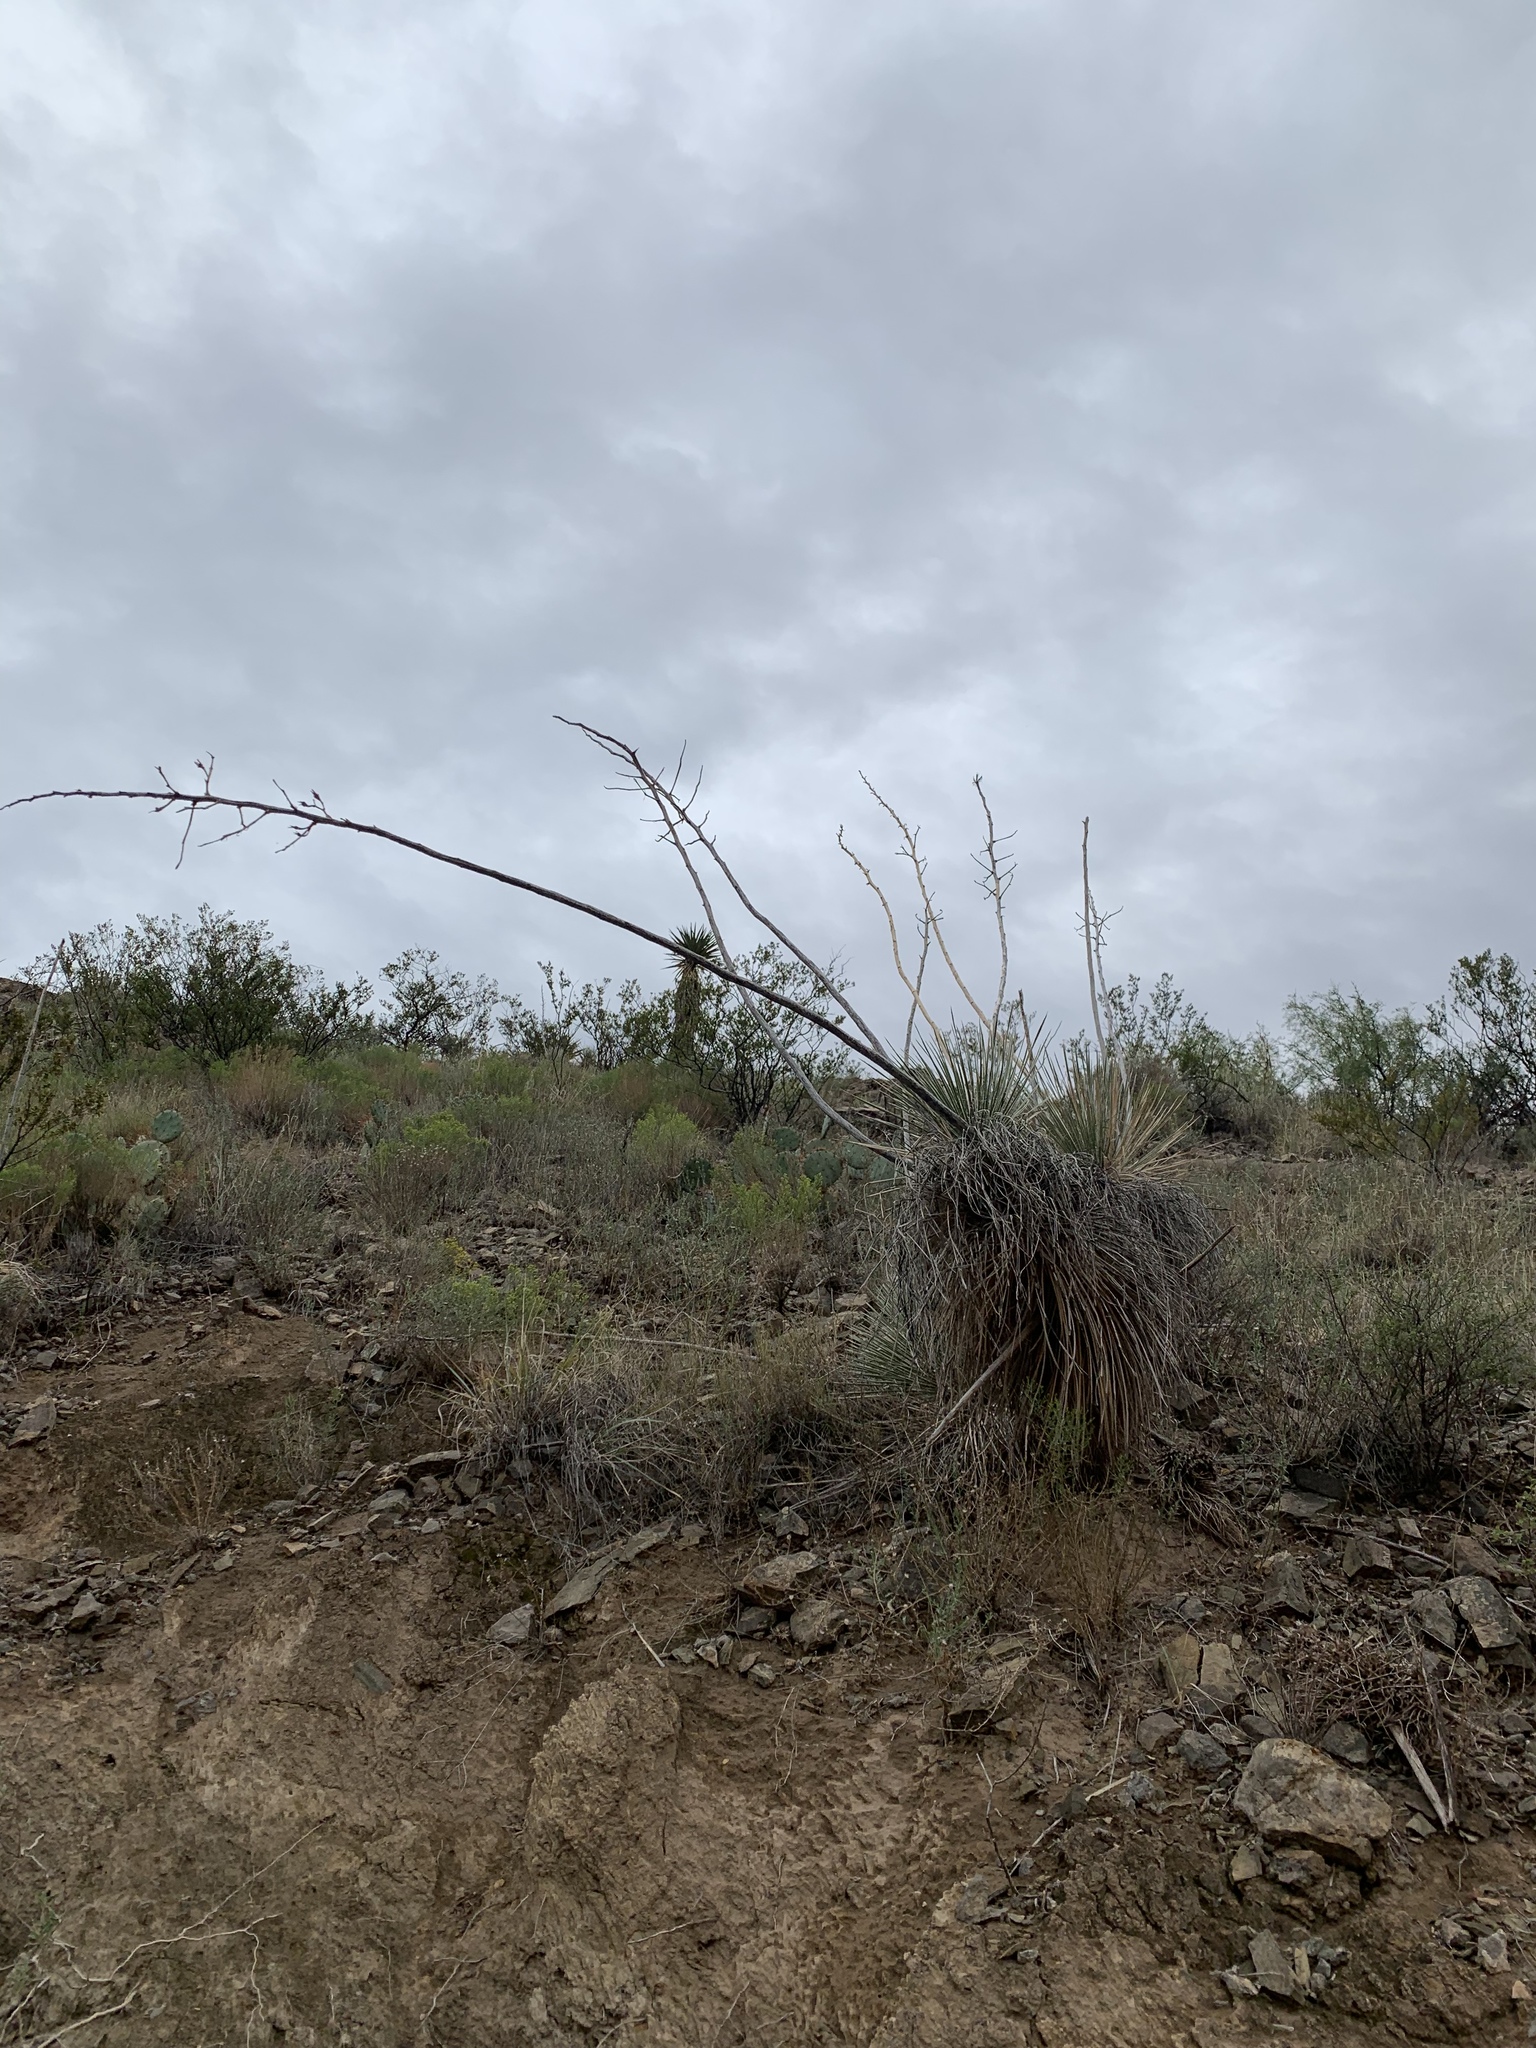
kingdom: Plantae
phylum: Tracheophyta
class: Liliopsida
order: Asparagales
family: Asparagaceae
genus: Yucca
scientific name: Yucca elata
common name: Palmella
